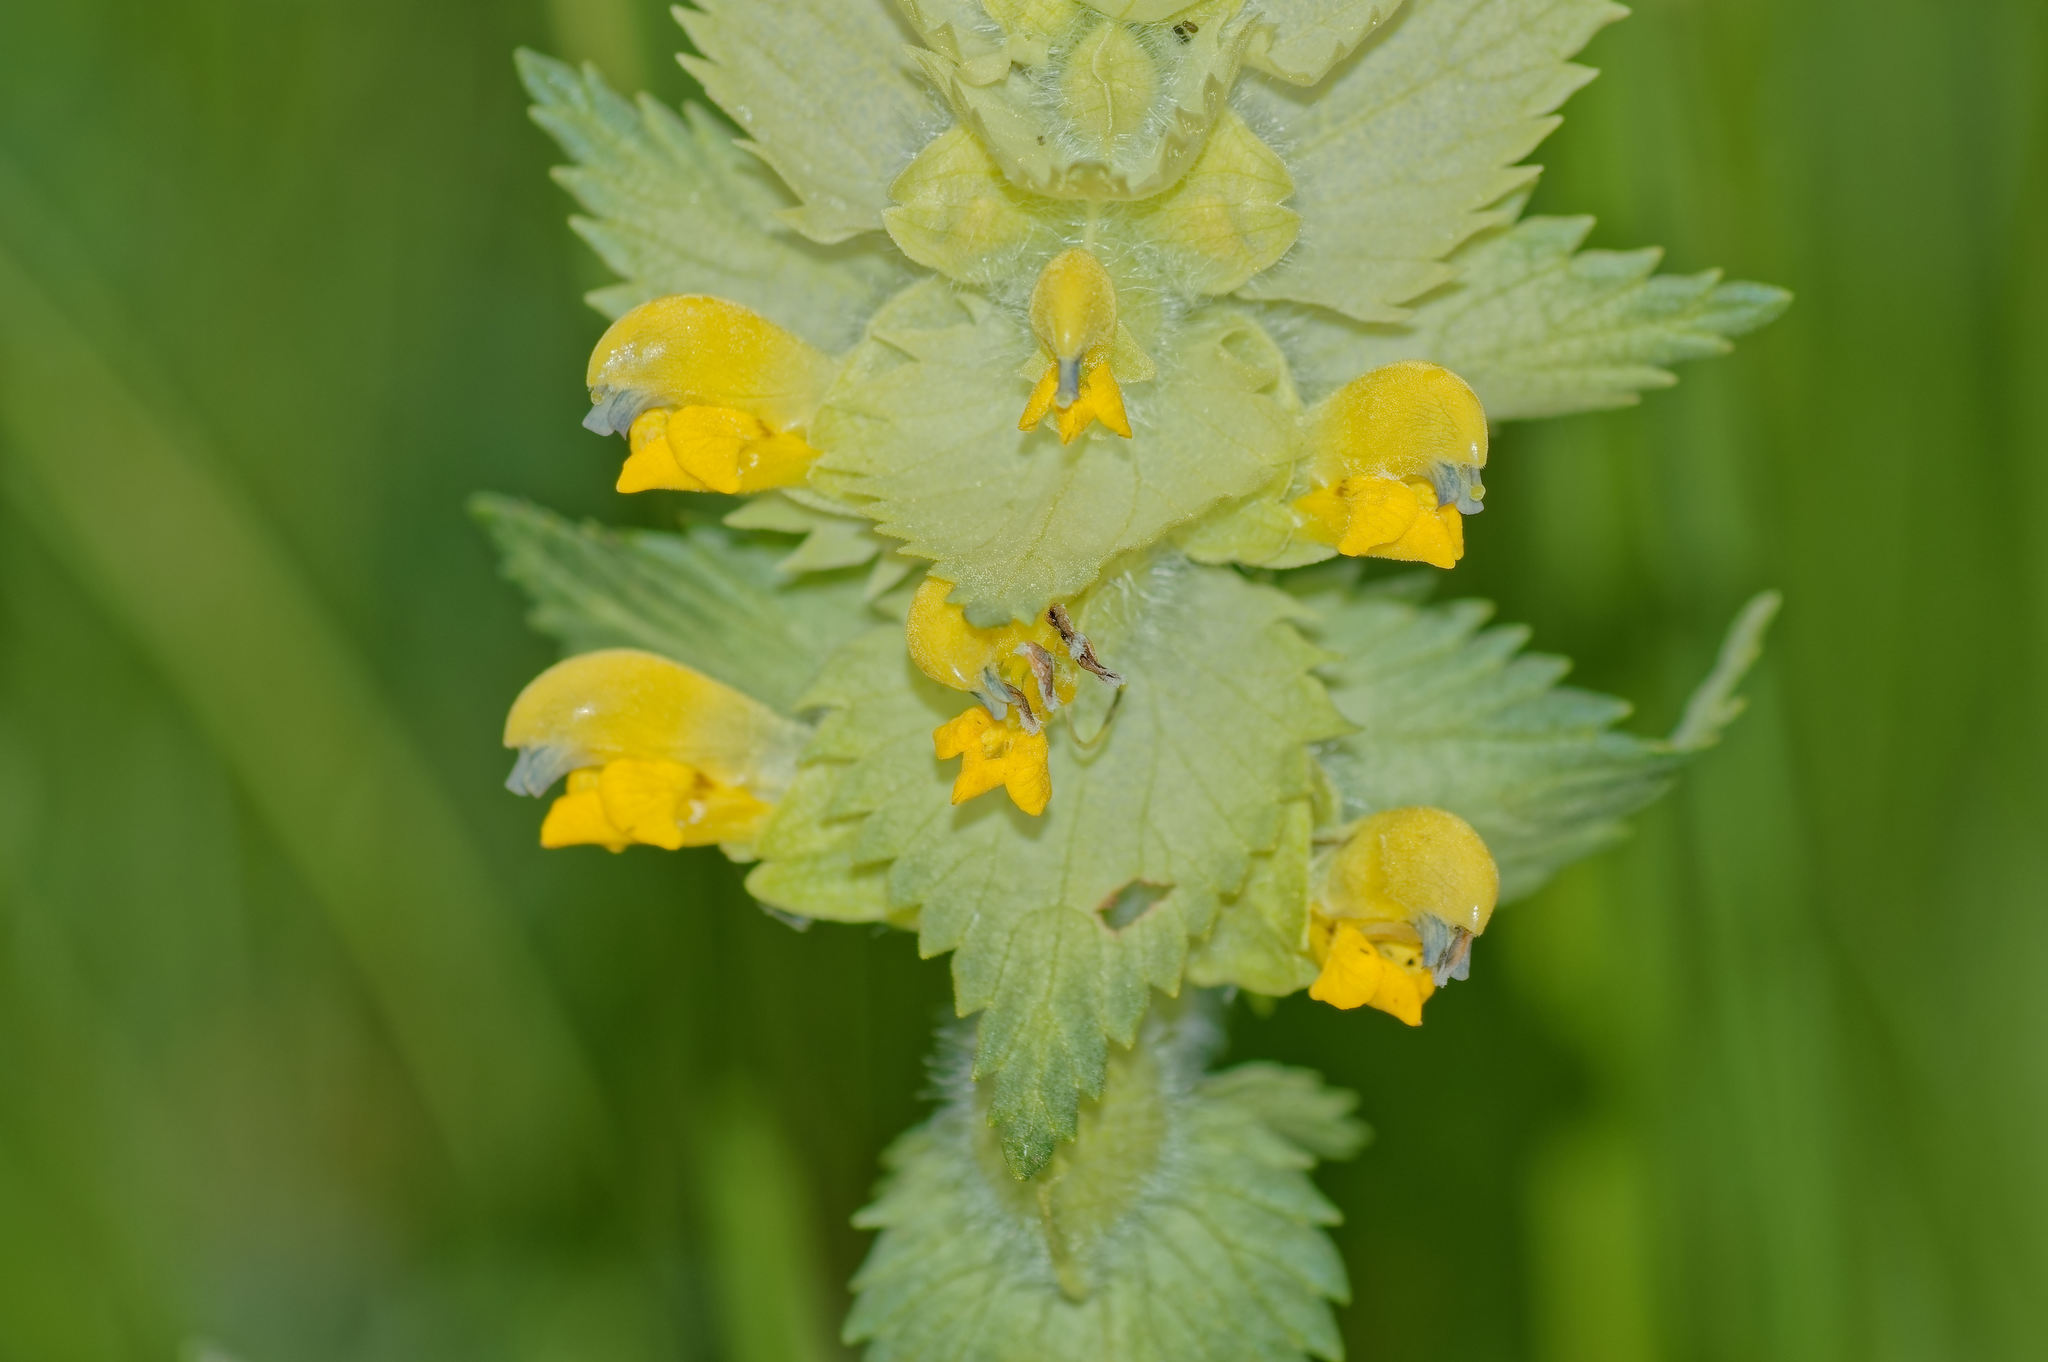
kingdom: Plantae
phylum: Tracheophyta
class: Magnoliopsida
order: Lamiales
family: Orobanchaceae
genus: Rhinanthus
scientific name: Rhinanthus alectorolophus
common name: Greater yellow-rattle
